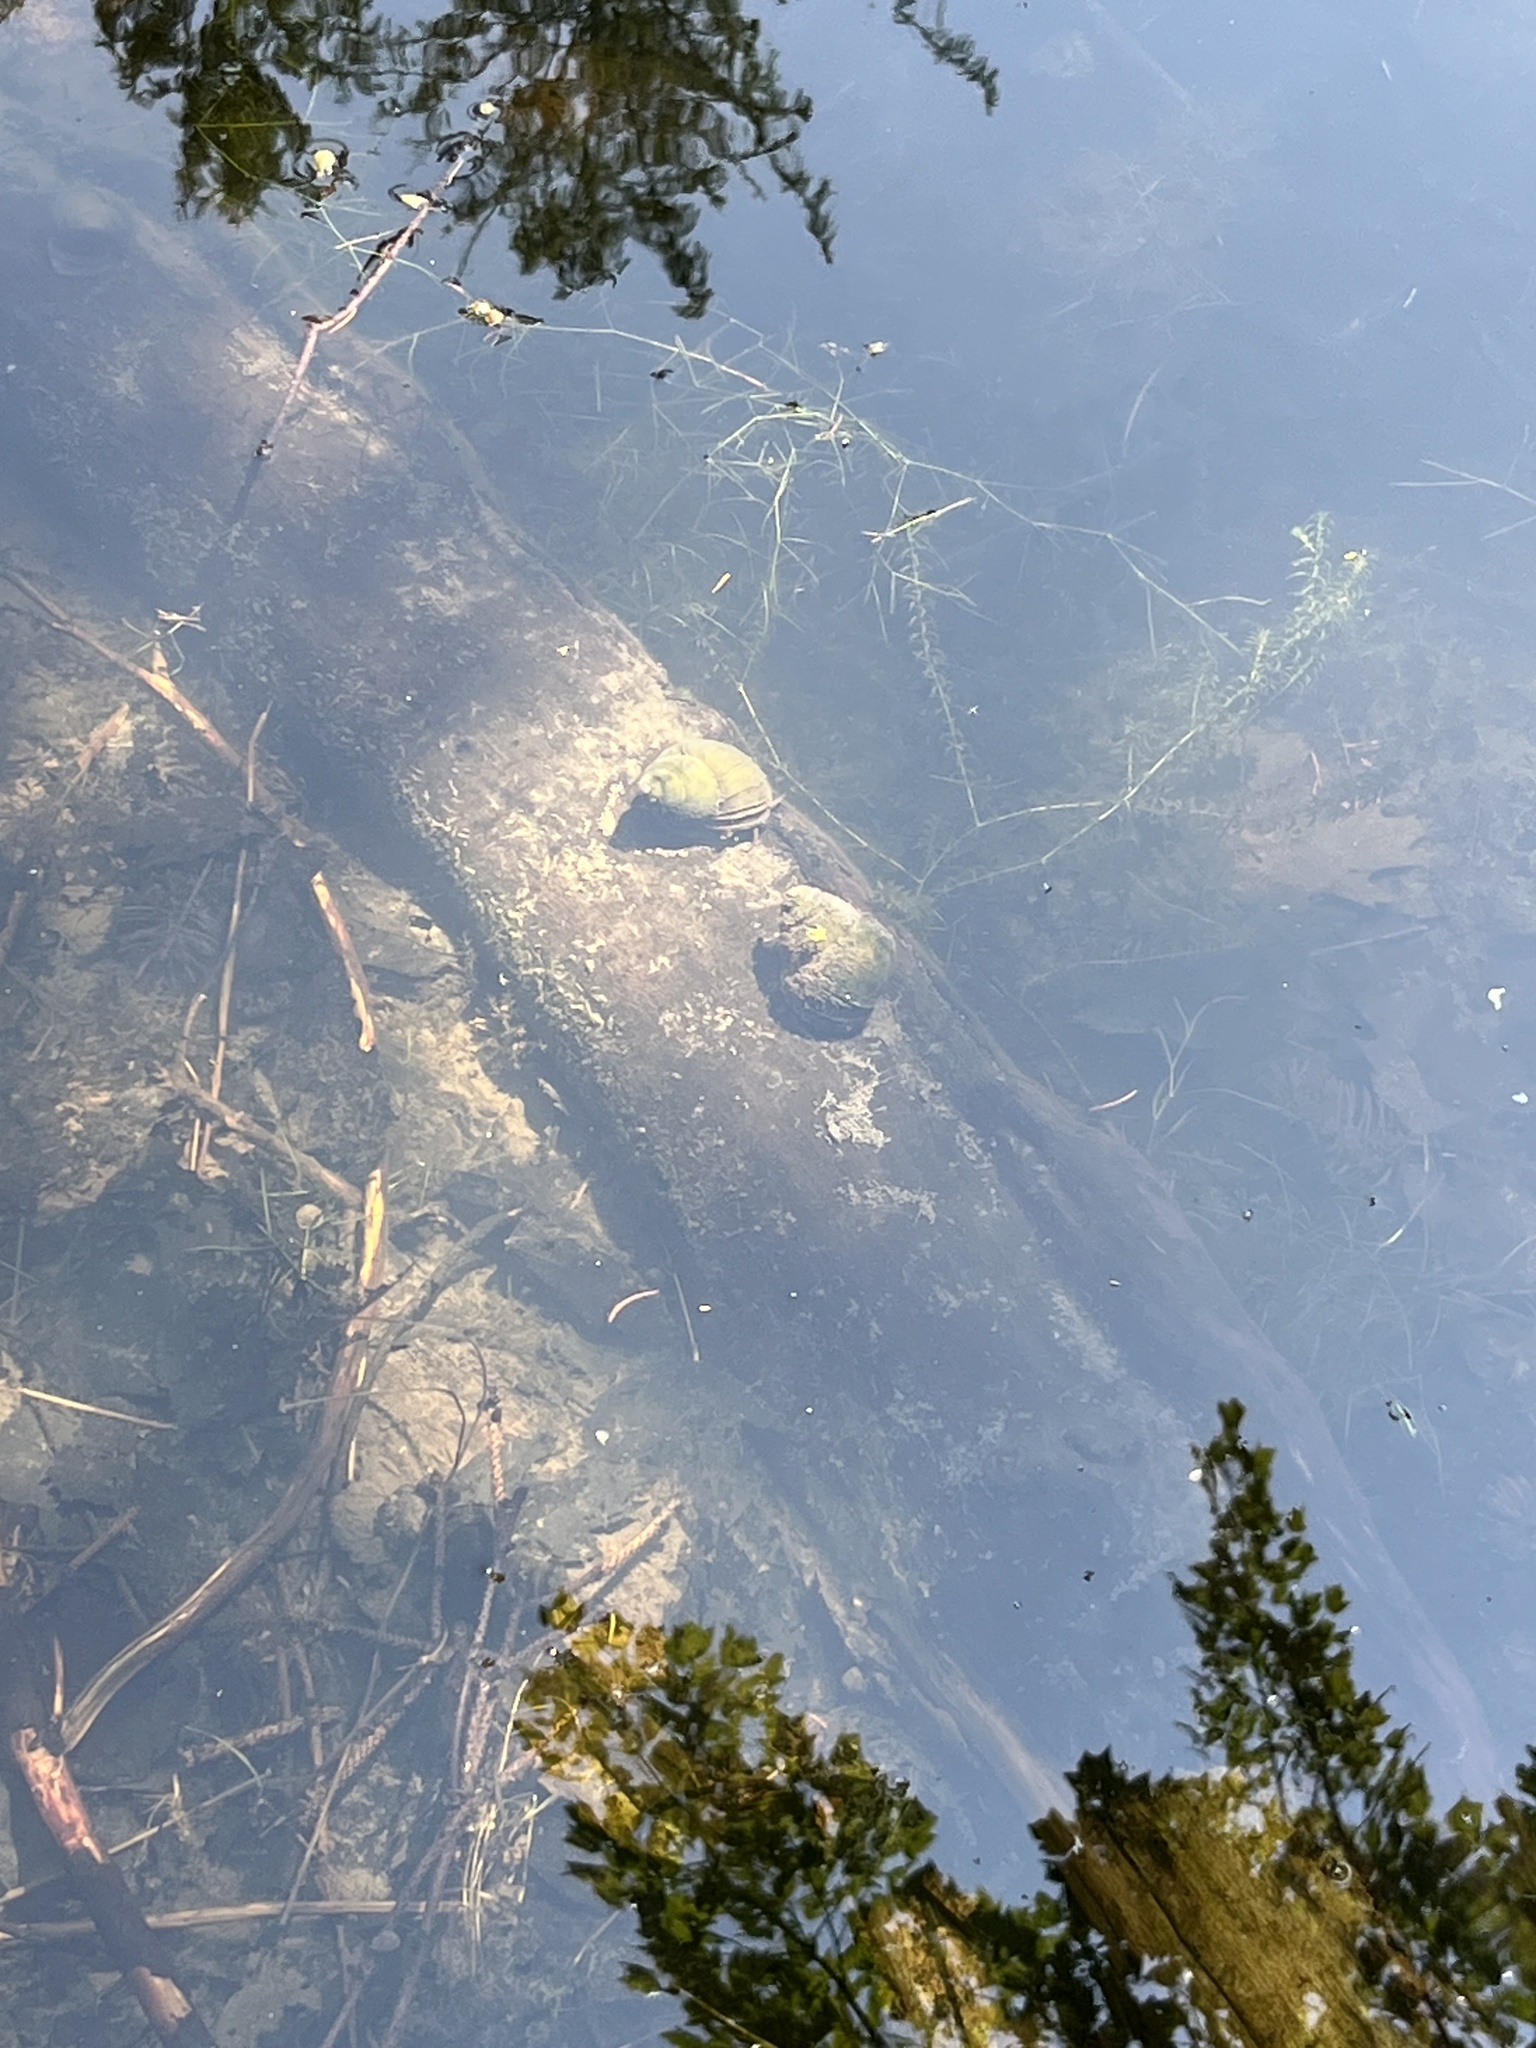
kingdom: Animalia
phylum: Mollusca
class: Gastropoda
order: Architaenioglossa
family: Viviparidae
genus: Cipangopaludina
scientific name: Cipangopaludina chinensis
